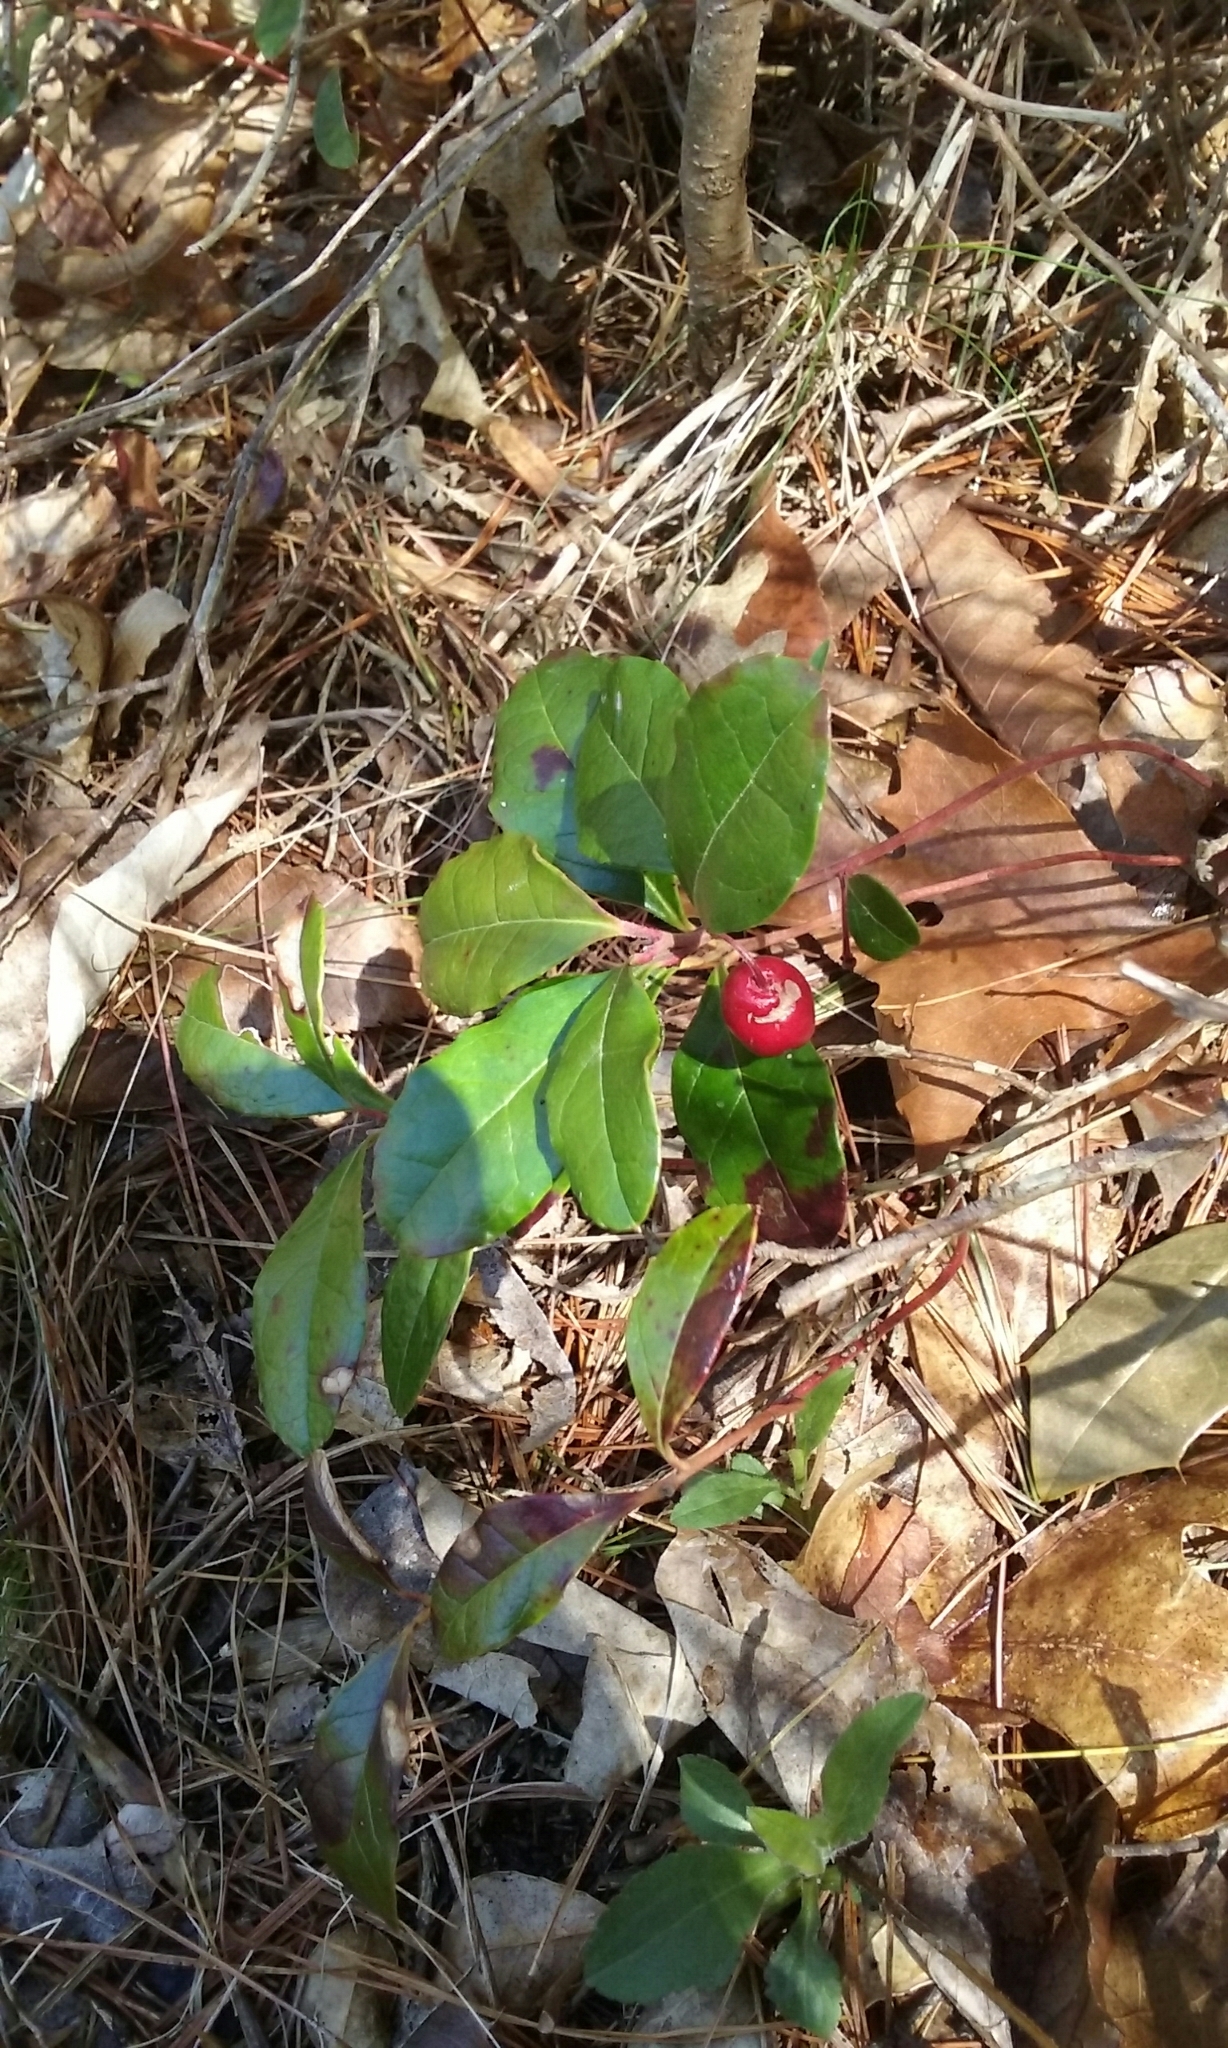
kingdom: Plantae
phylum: Tracheophyta
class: Magnoliopsida
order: Ericales
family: Ericaceae
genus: Gaultheria
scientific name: Gaultheria procumbens
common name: Checkerberry
